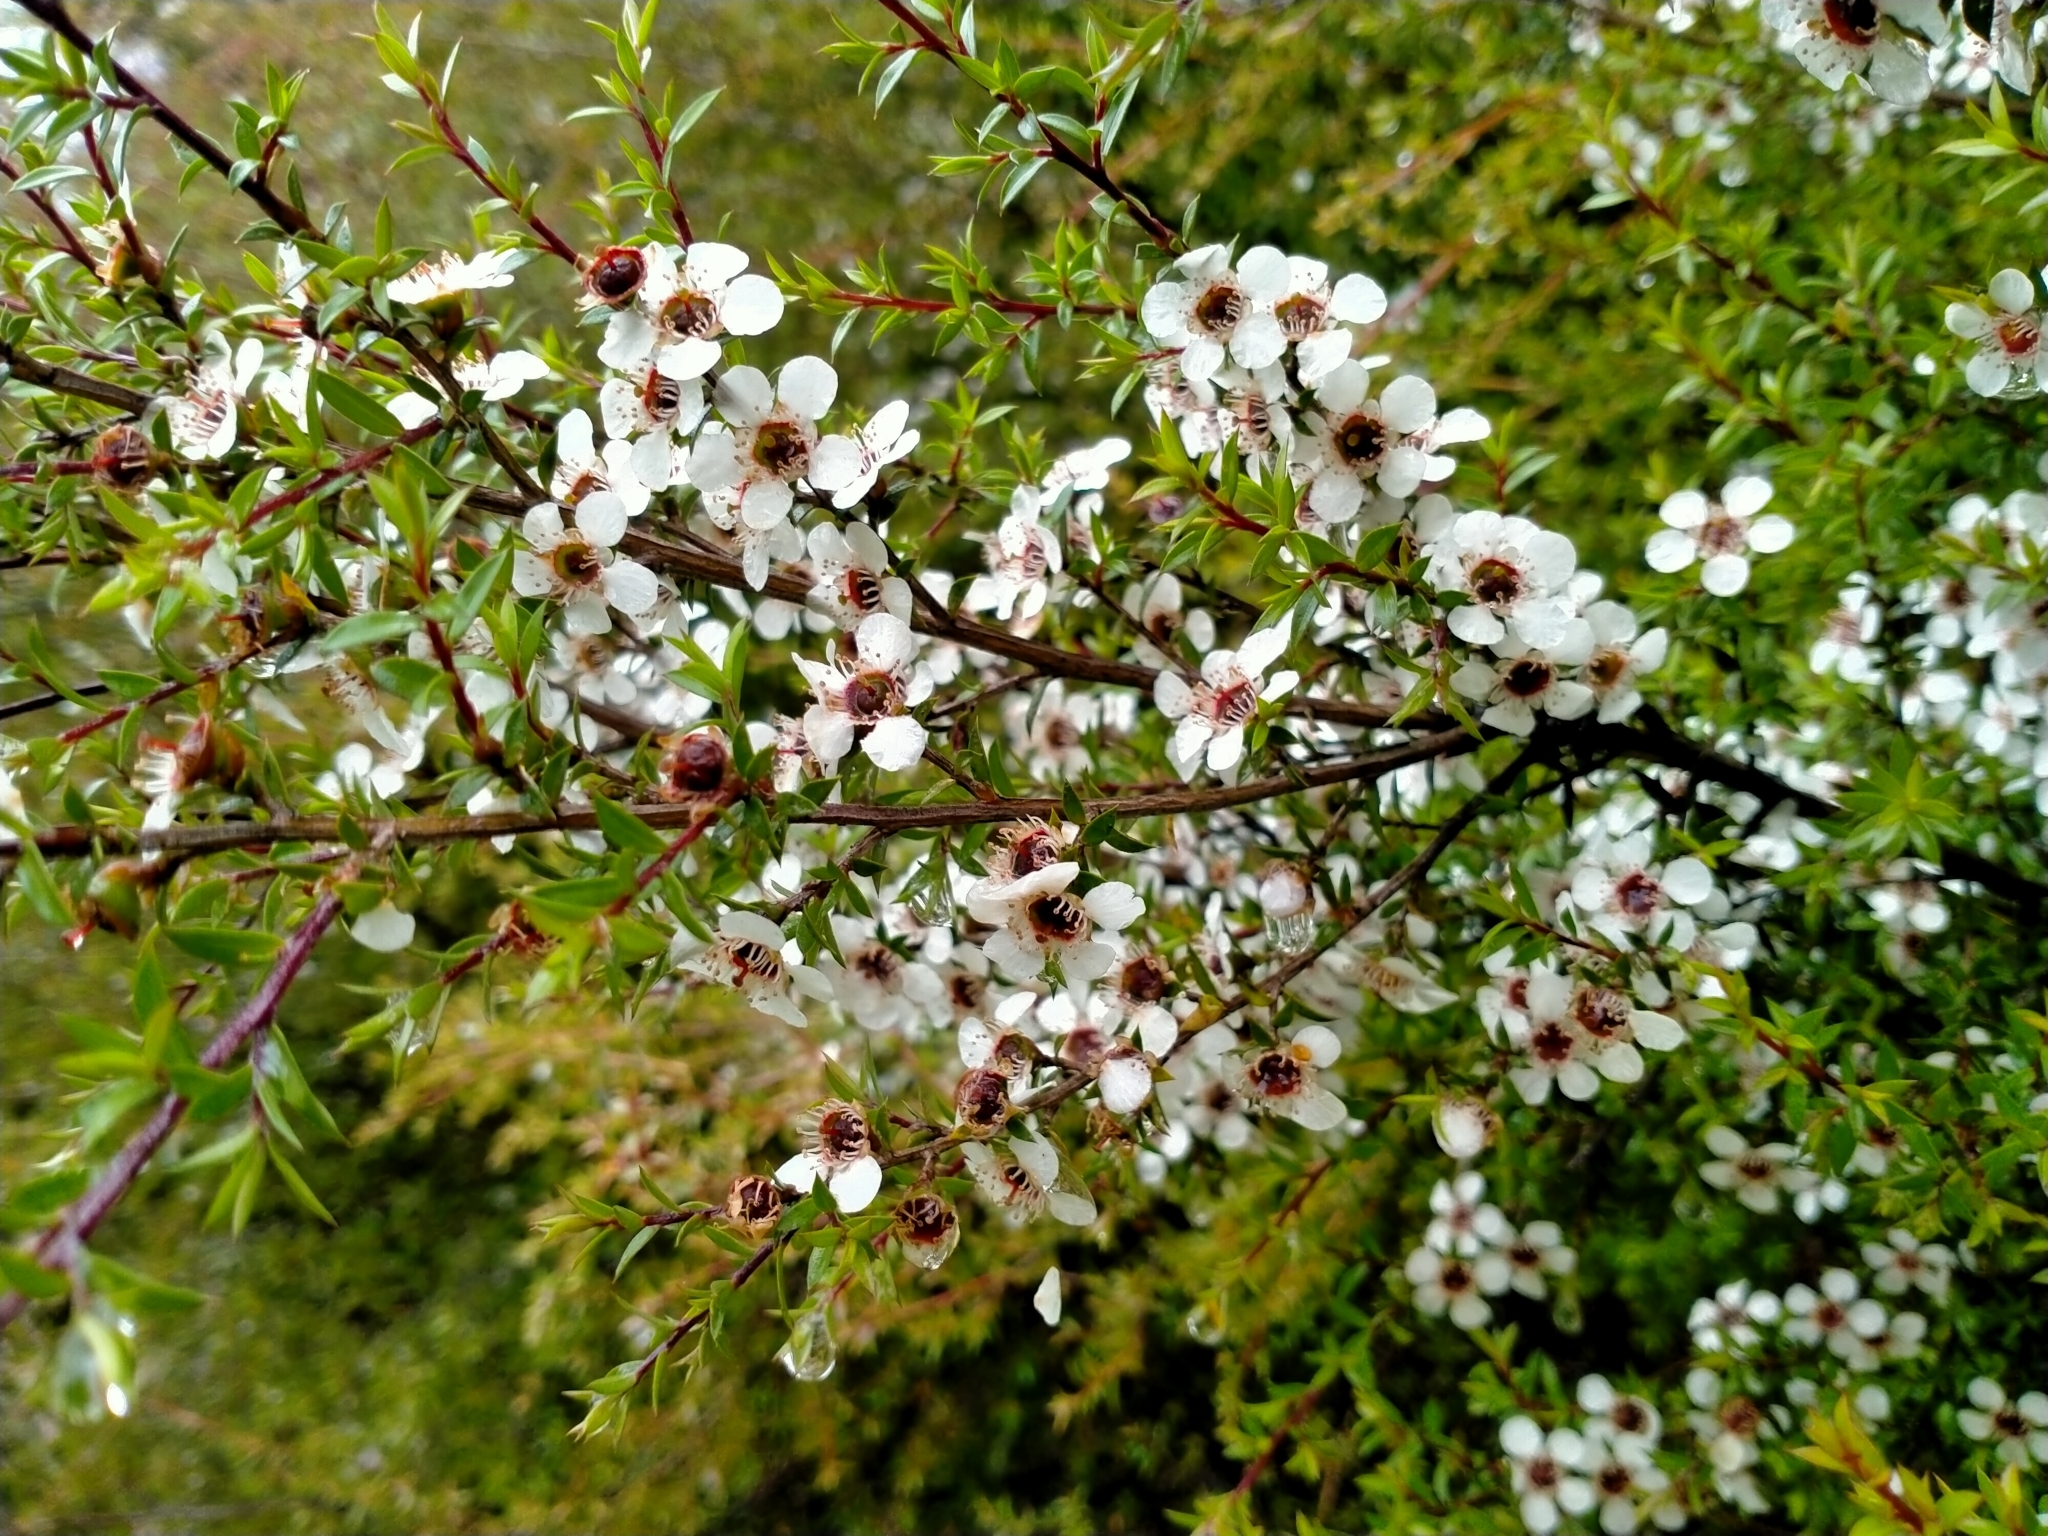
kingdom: Plantae
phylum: Tracheophyta
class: Magnoliopsida
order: Myrtales
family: Myrtaceae
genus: Leptospermum
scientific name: Leptospermum scoparium
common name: Broom tea-tree
